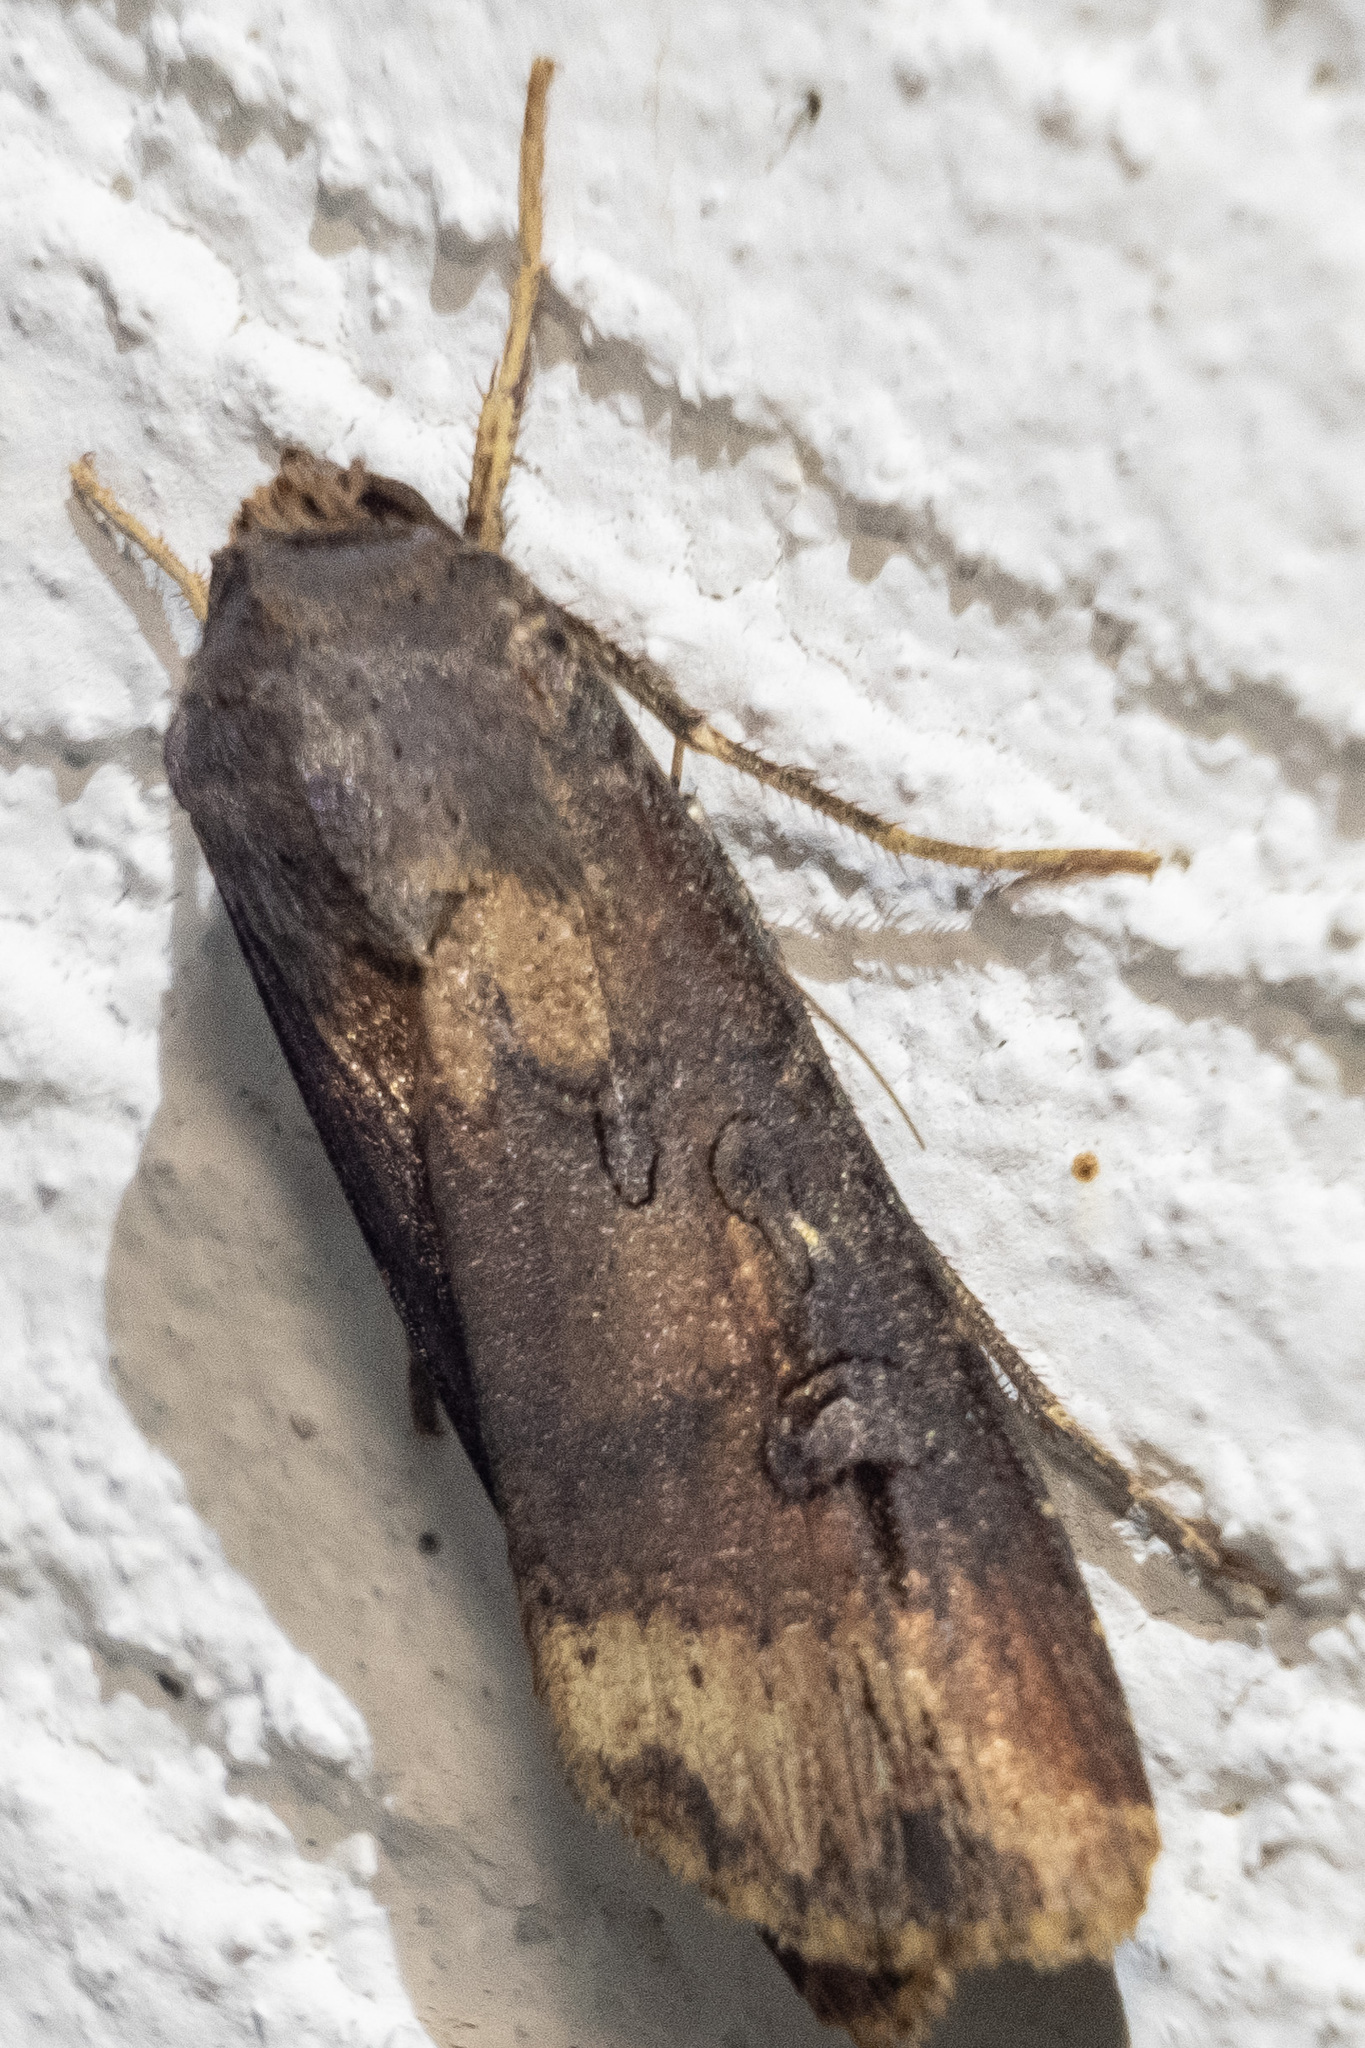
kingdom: Animalia
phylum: Arthropoda
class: Insecta
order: Lepidoptera
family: Noctuidae
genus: Agrotis
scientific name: Agrotis ipsilon
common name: Dark sword-grass
